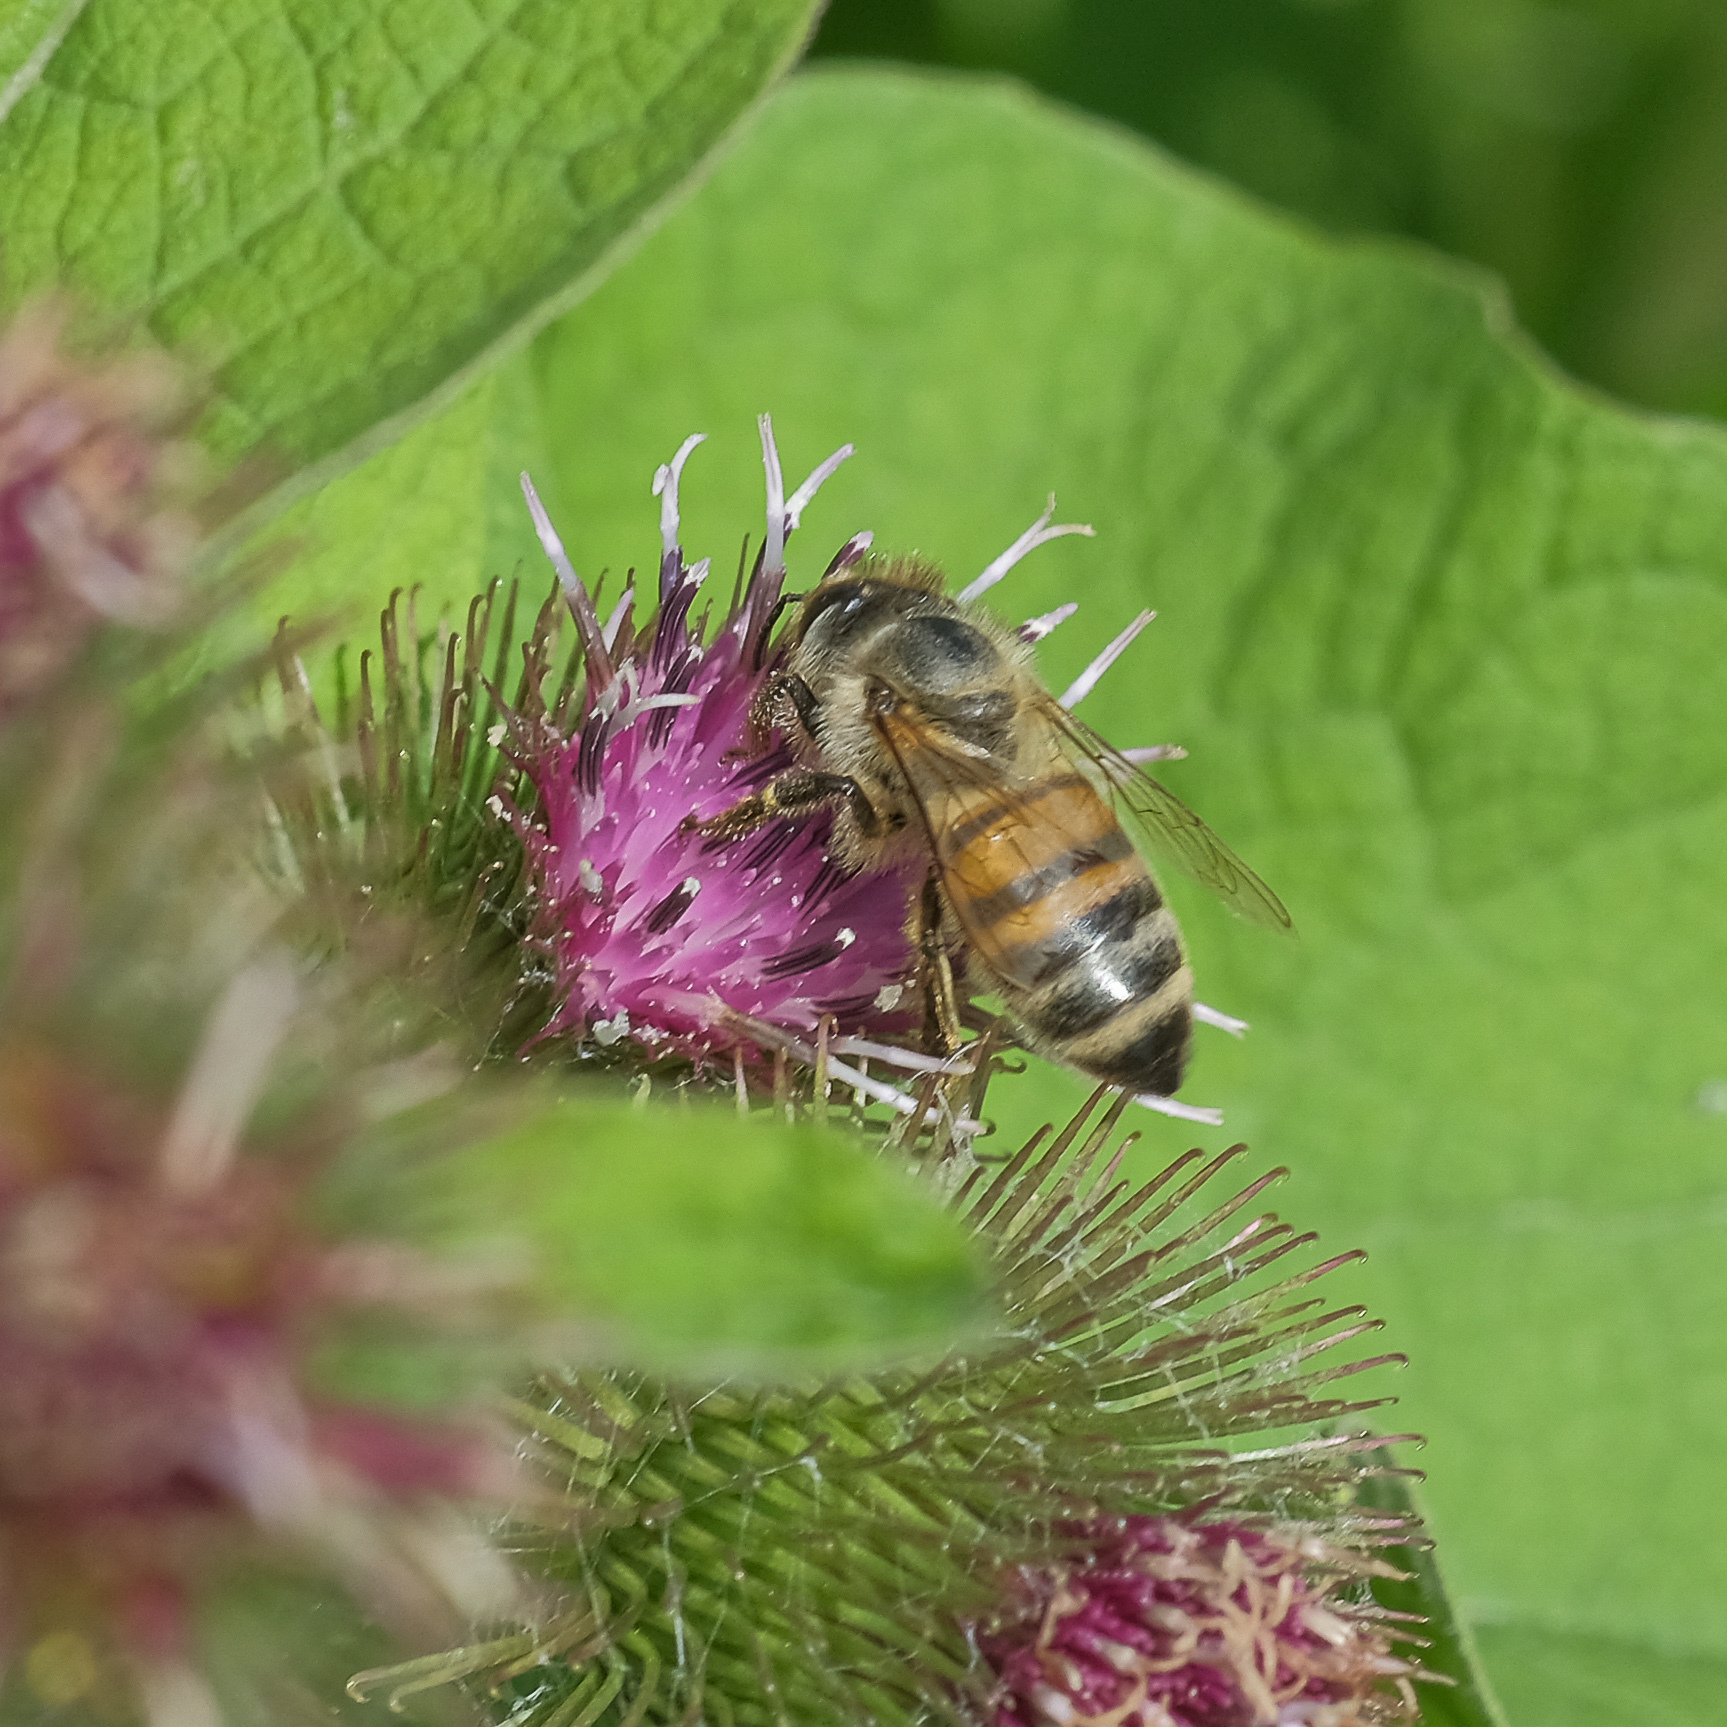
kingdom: Animalia
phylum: Arthropoda
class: Insecta
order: Hymenoptera
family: Apidae
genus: Apis
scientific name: Apis mellifera
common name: Honey bee
